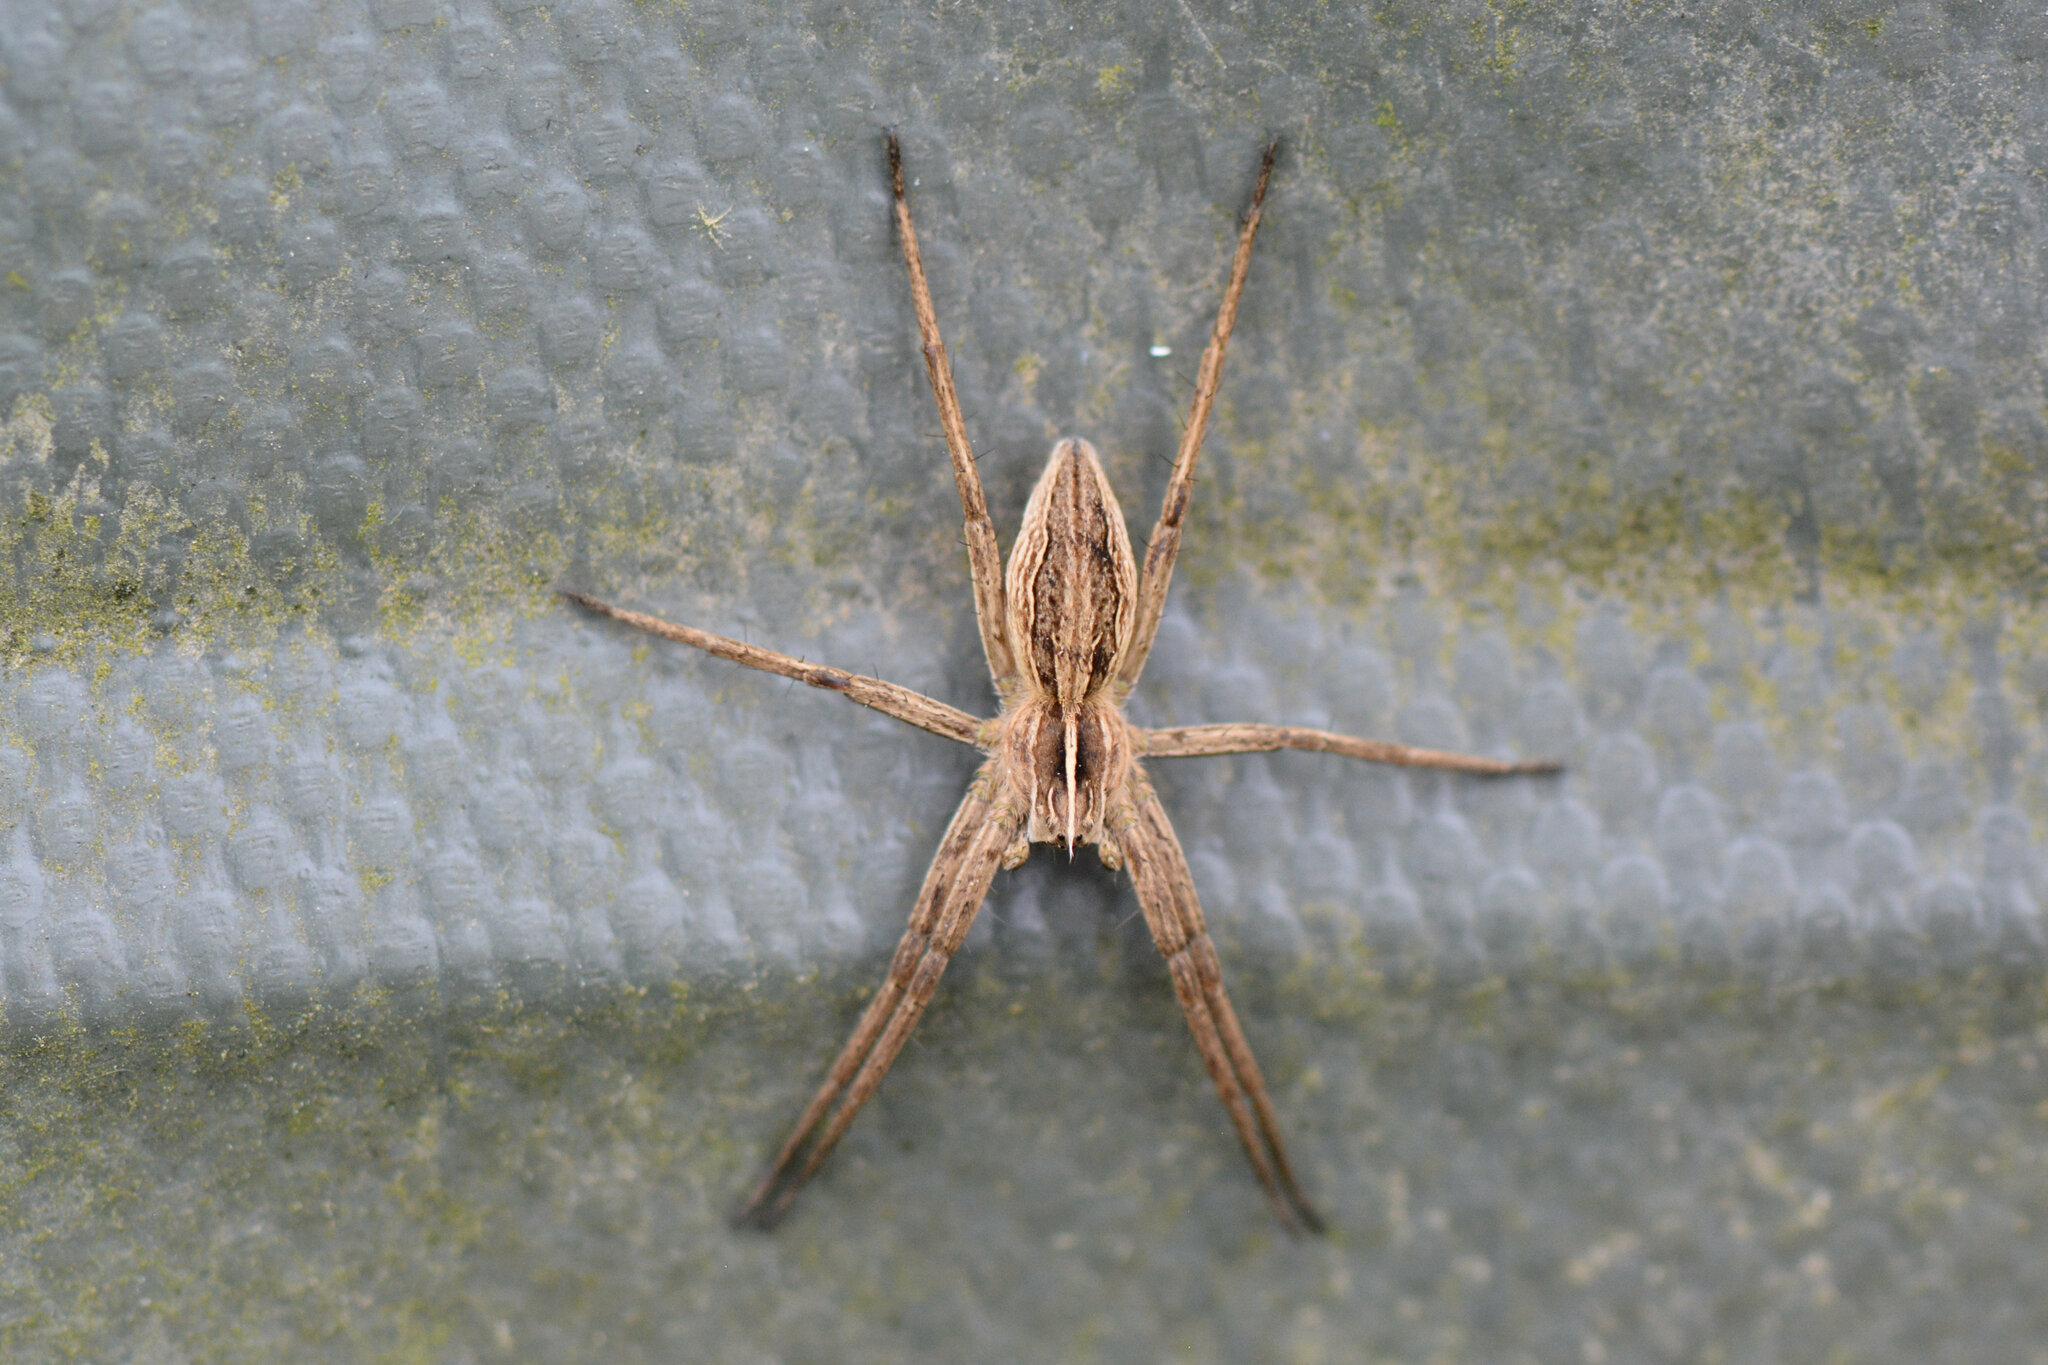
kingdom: Animalia
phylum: Arthropoda
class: Arachnida
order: Araneae
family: Pisauridae
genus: Pisaura
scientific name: Pisaura mirabilis
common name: Tent spider
